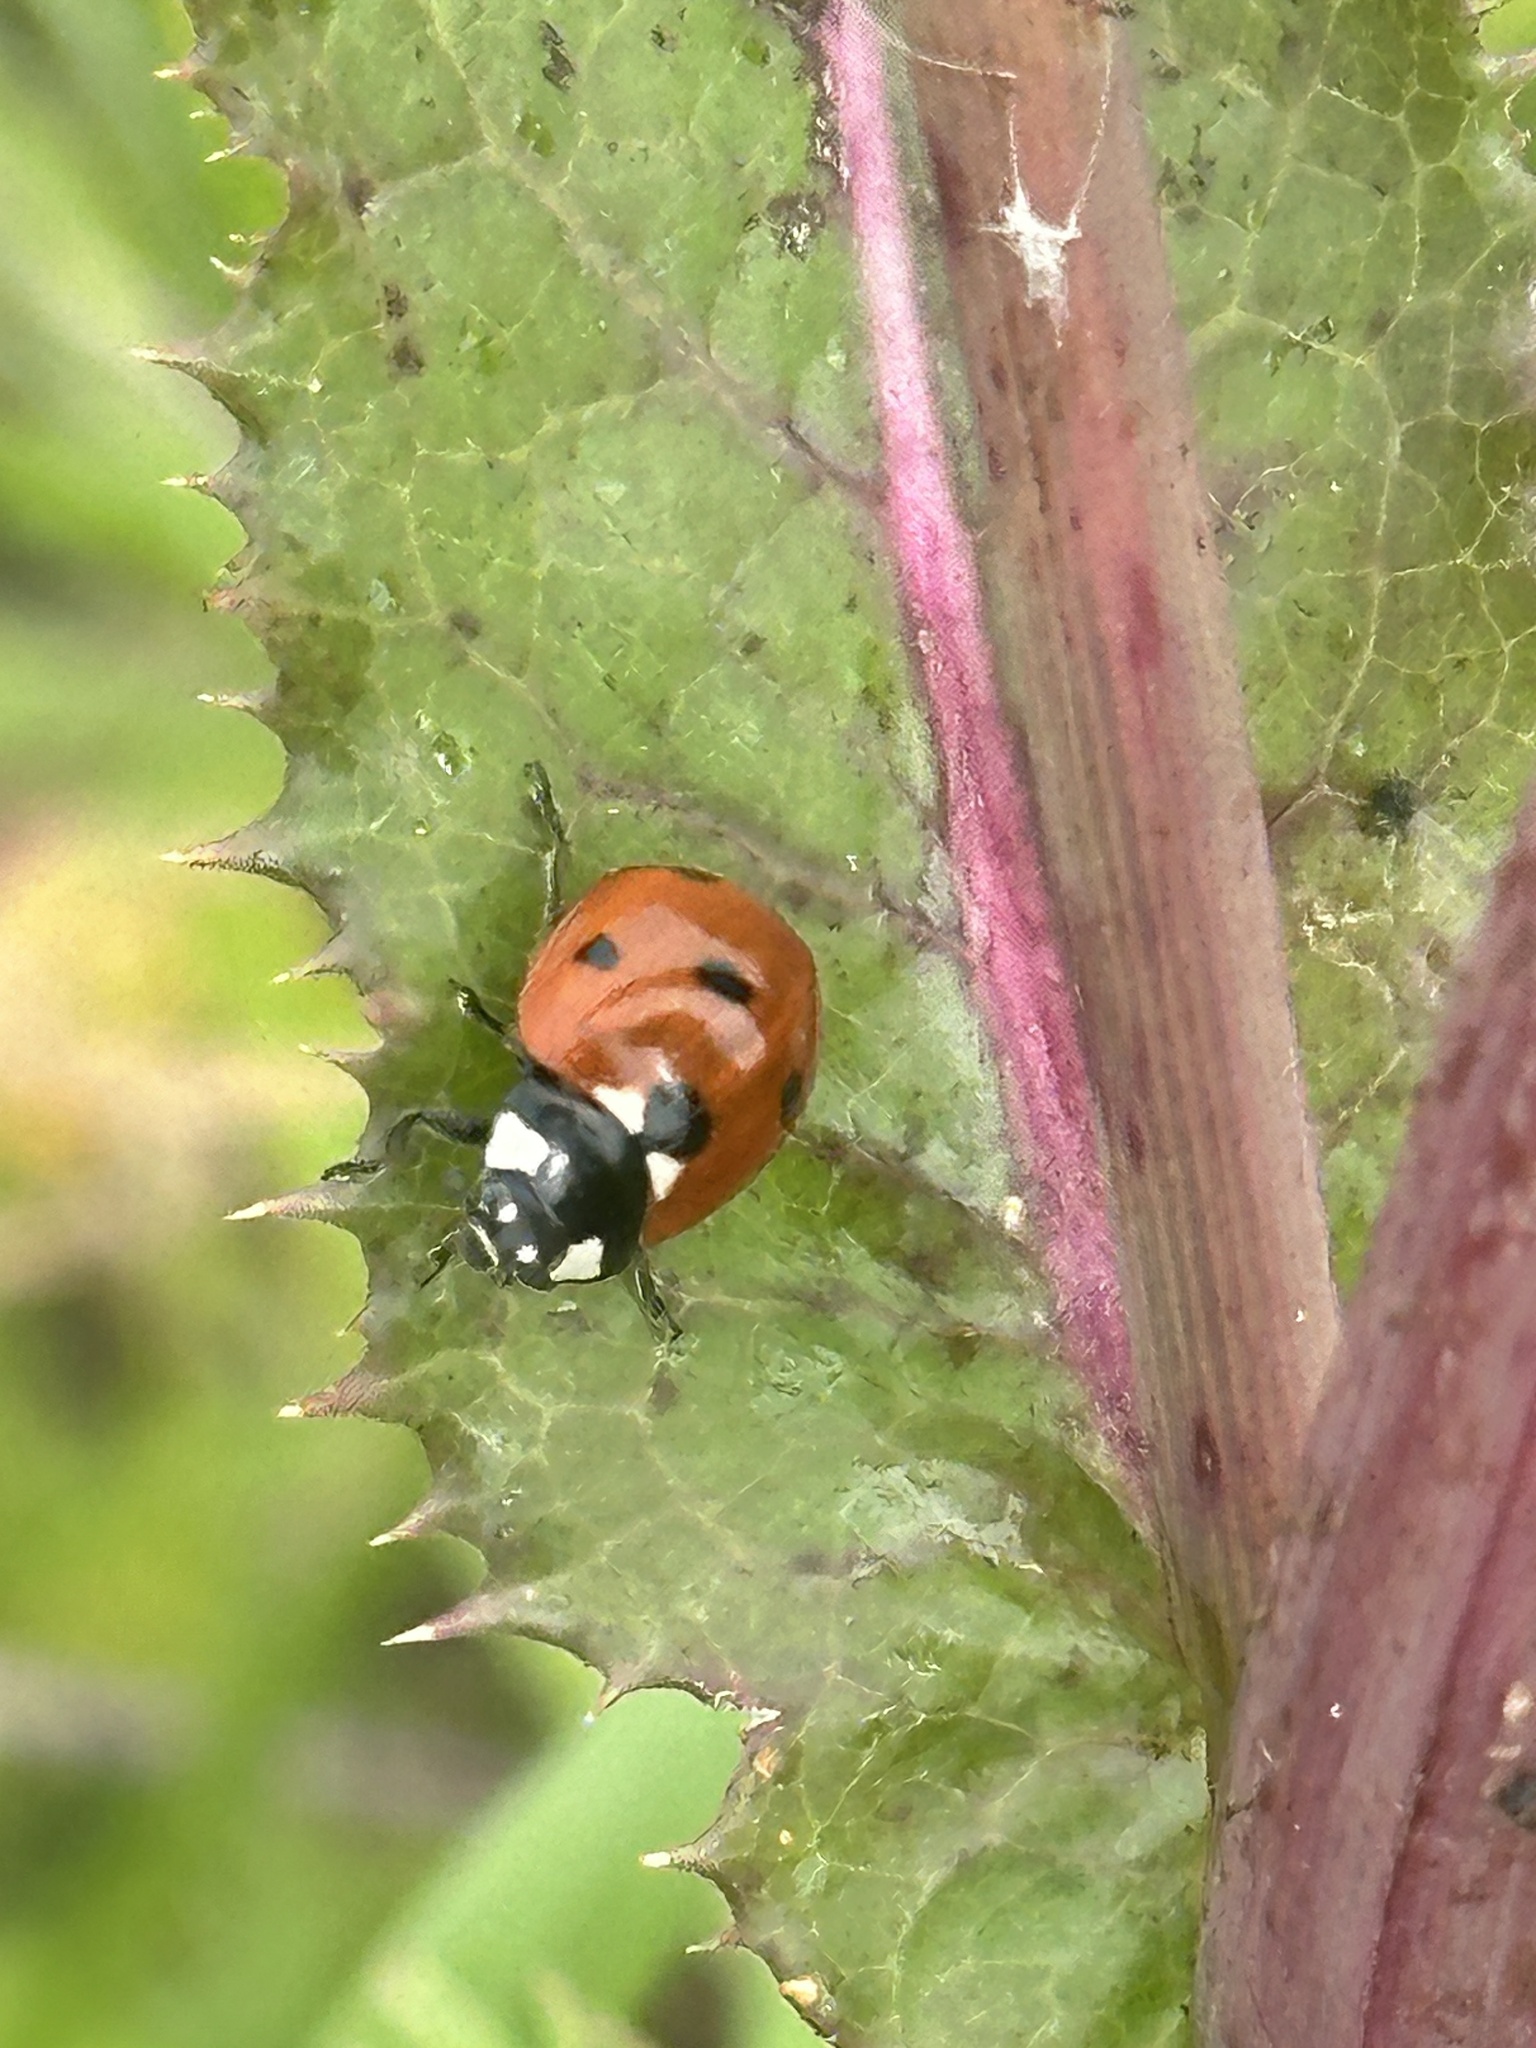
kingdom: Animalia
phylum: Arthropoda
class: Insecta
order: Coleoptera
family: Coccinellidae
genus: Coccinella
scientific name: Coccinella septempunctata
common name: Sevenspotted lady beetle
